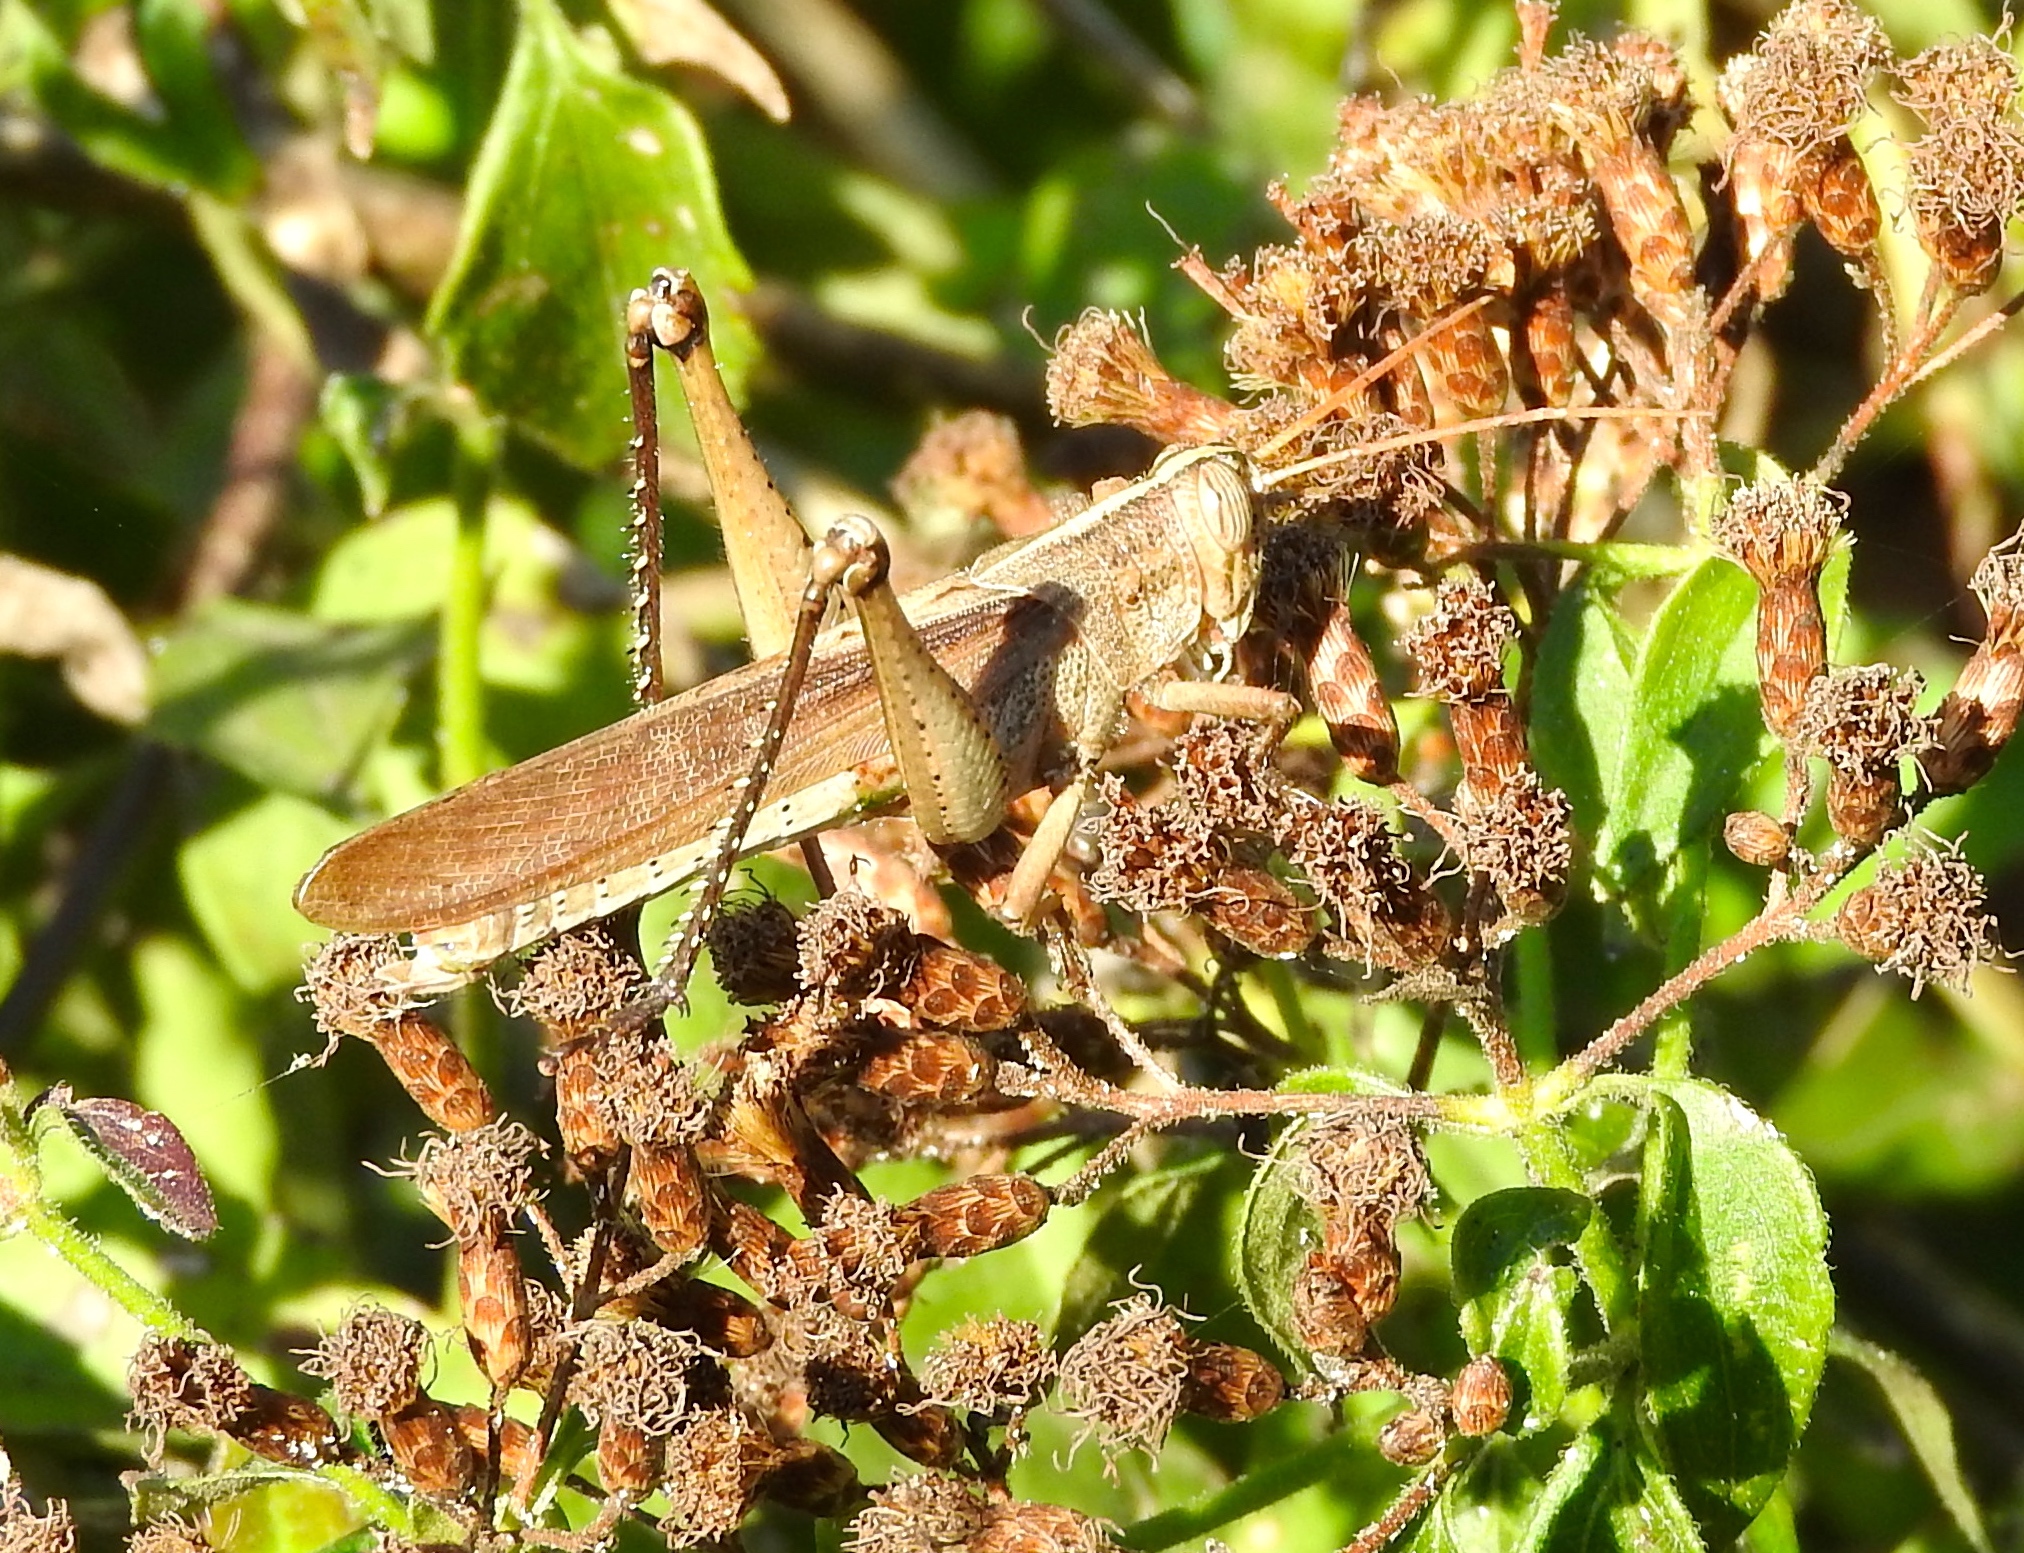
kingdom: Animalia
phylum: Arthropoda
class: Insecta
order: Orthoptera
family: Acrididae
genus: Schistocerca
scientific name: Schistocerca
